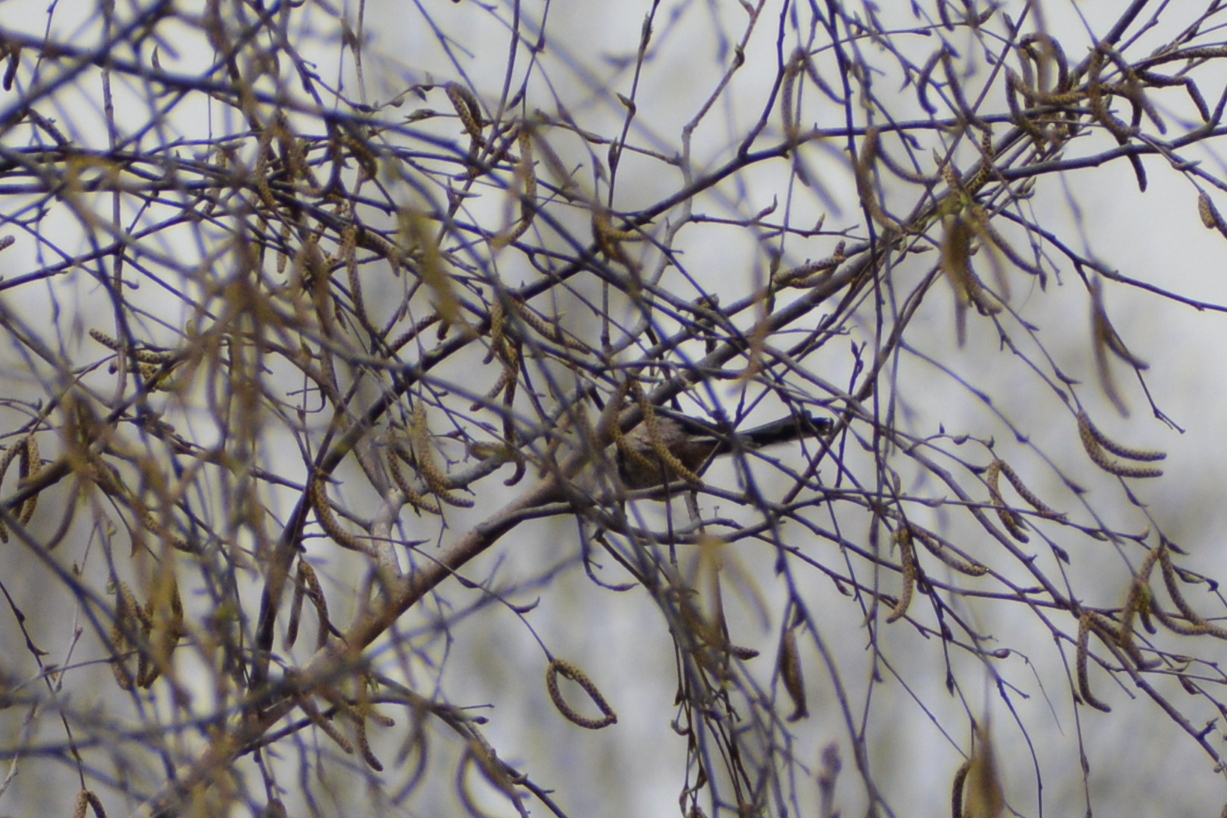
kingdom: Animalia
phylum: Chordata
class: Aves
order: Passeriformes
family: Aegithalidae
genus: Aegithalos
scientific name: Aegithalos caudatus
